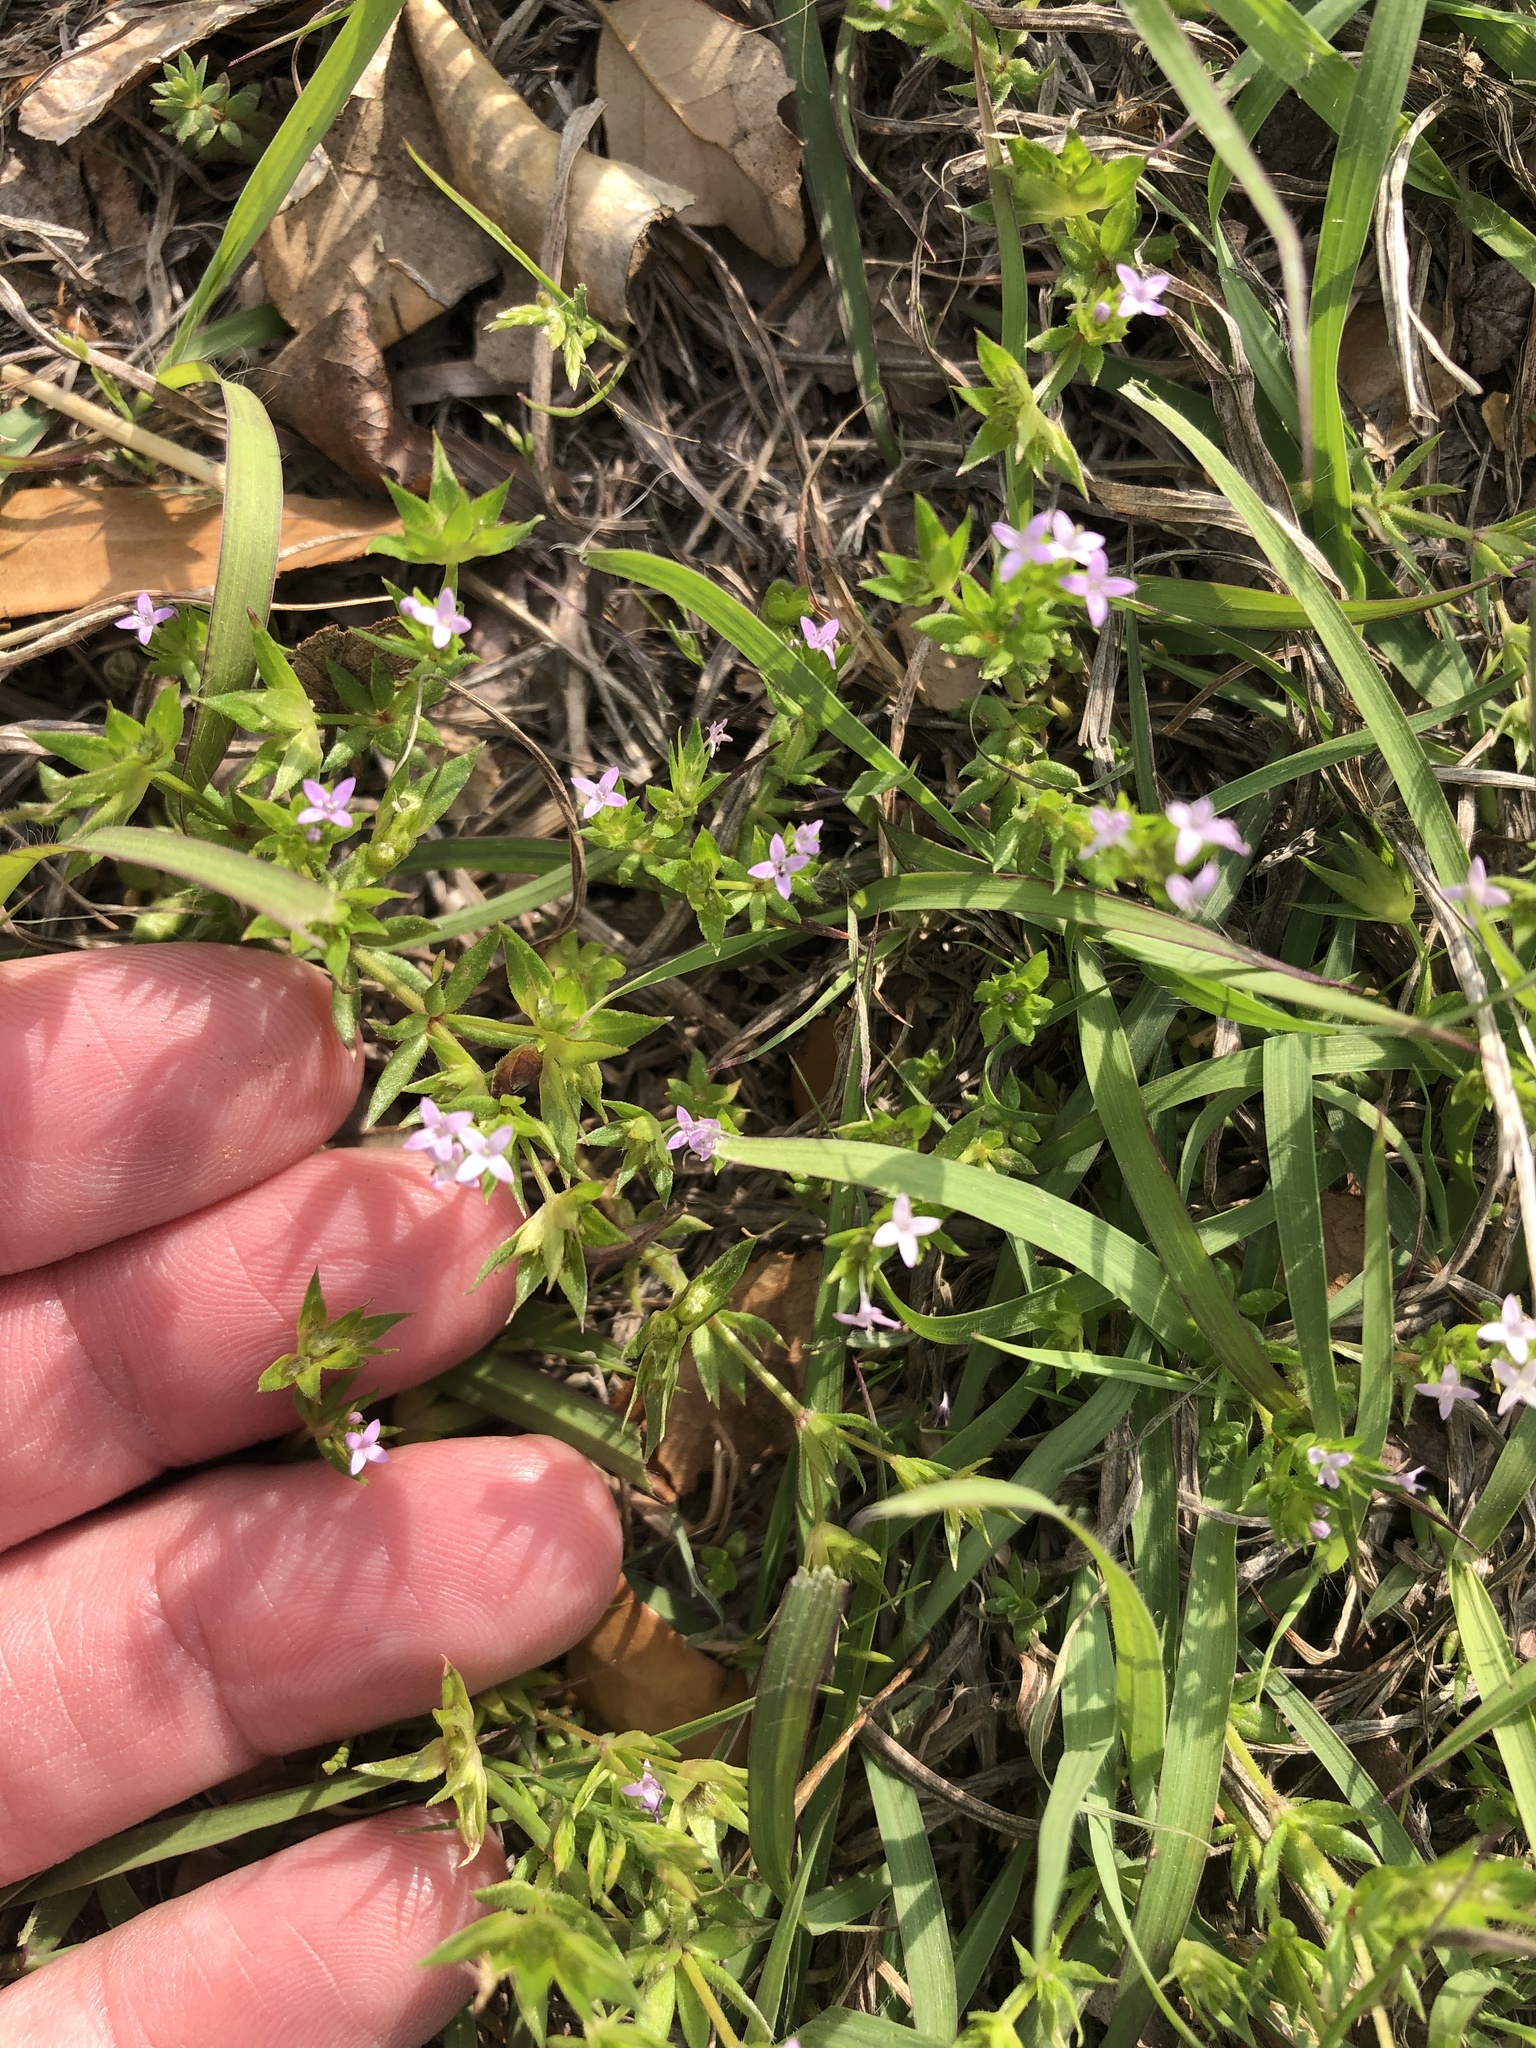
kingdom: Plantae
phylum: Tracheophyta
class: Magnoliopsida
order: Gentianales
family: Rubiaceae
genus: Sherardia
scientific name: Sherardia arvensis
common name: Field madder
